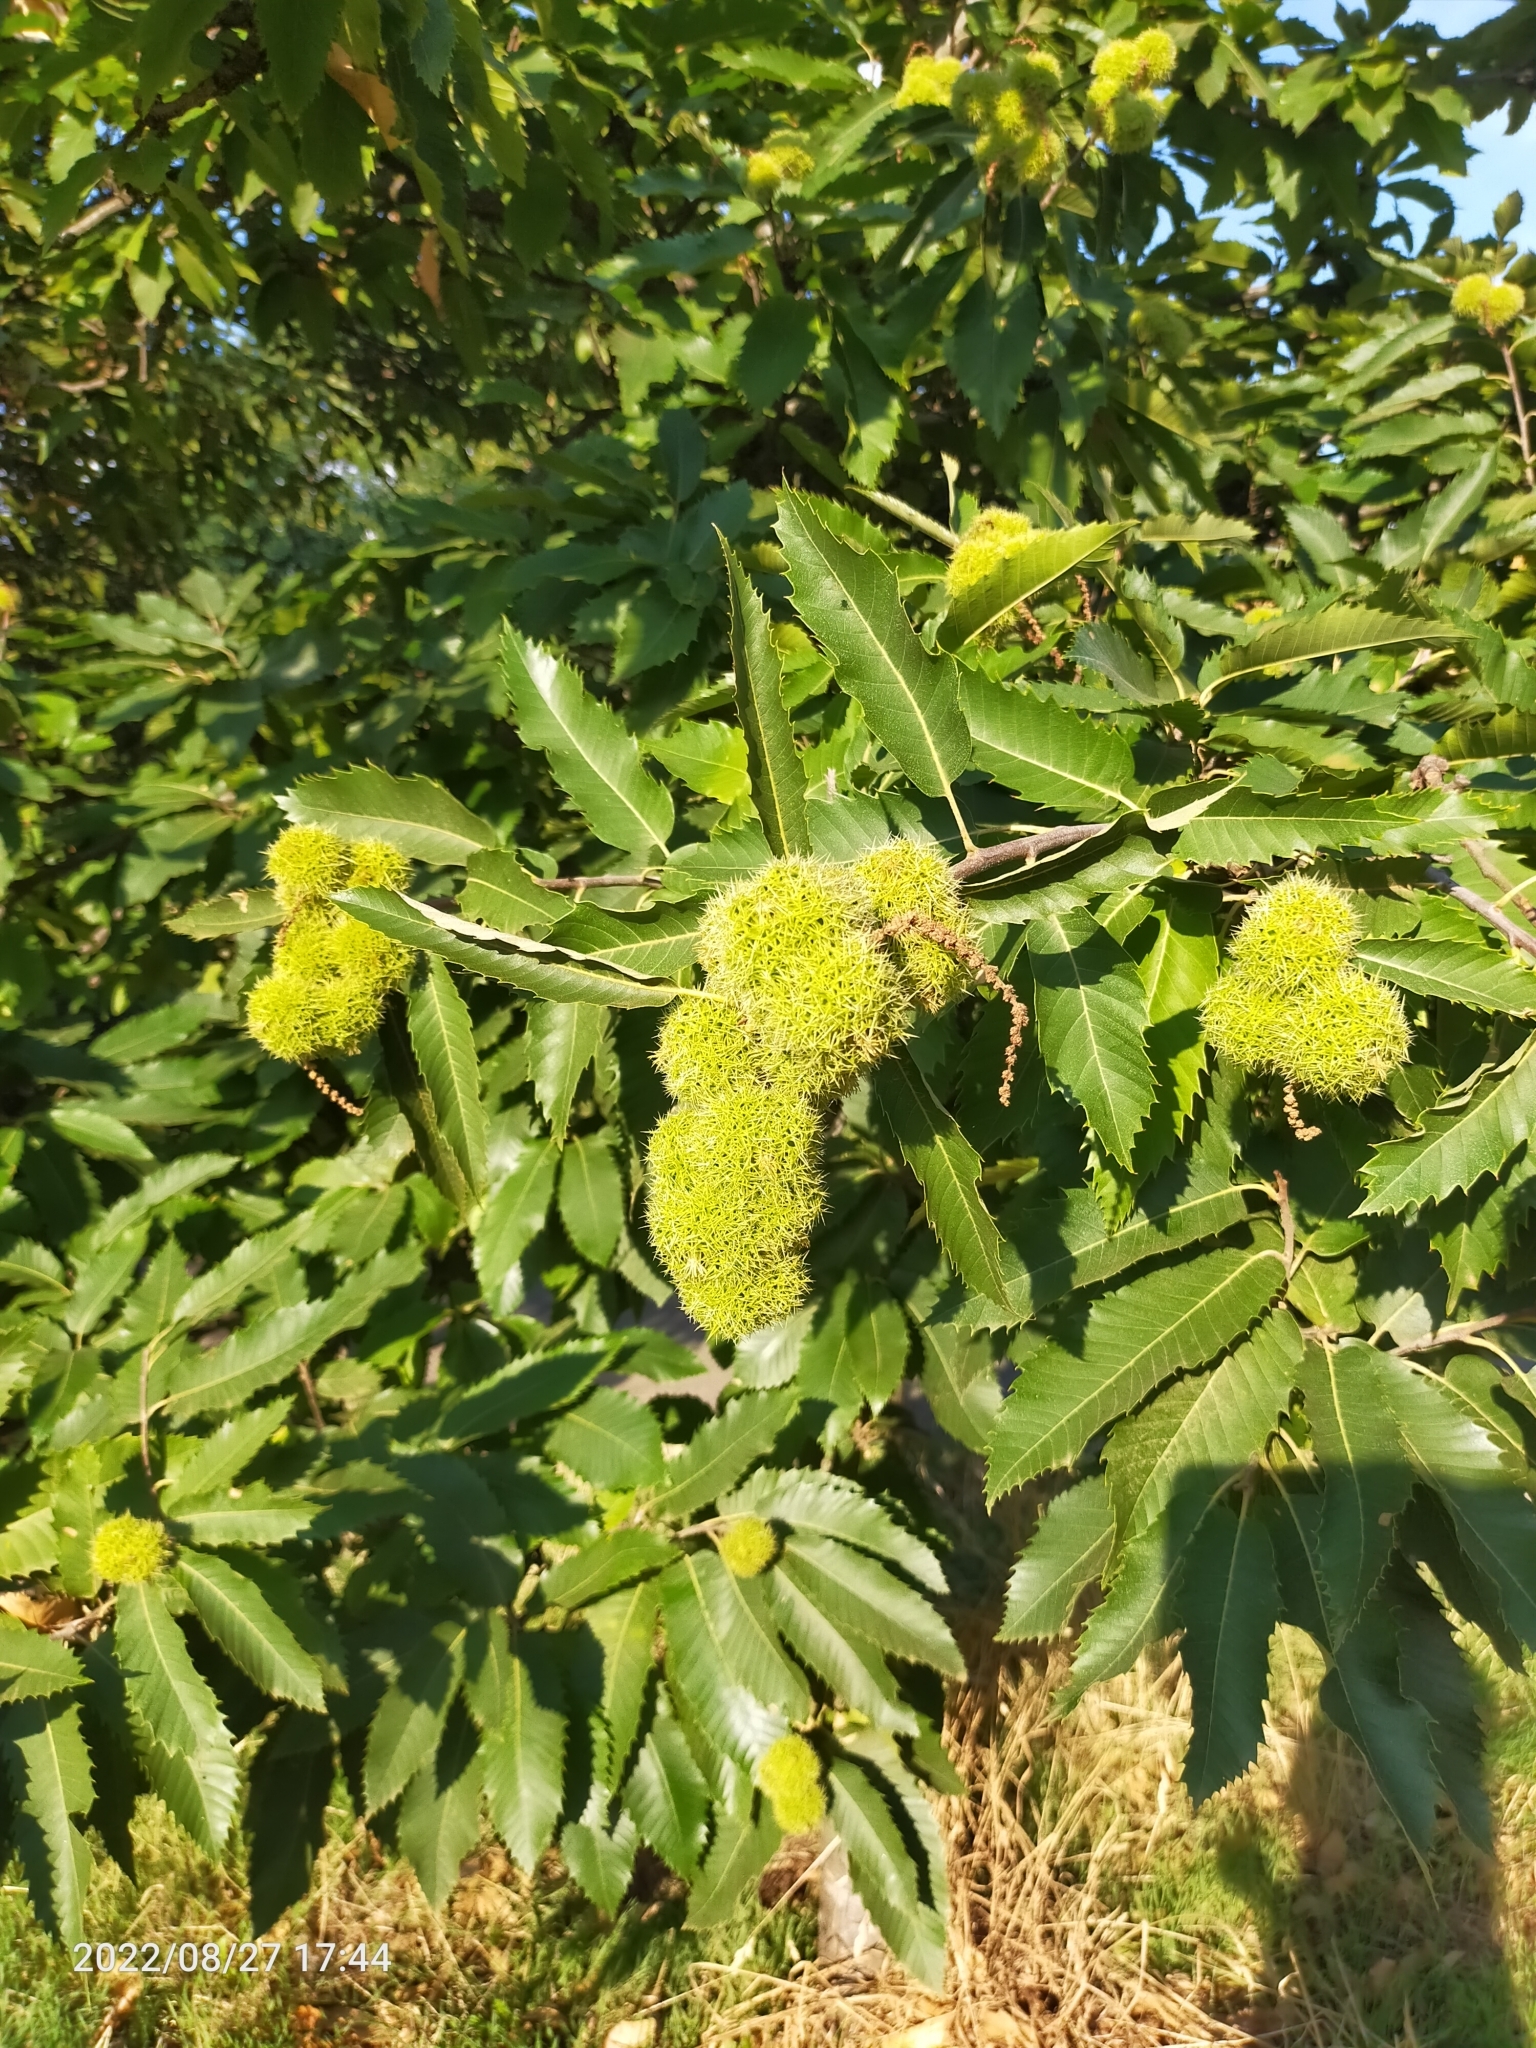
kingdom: Plantae
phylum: Tracheophyta
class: Magnoliopsida
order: Fagales
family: Fagaceae
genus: Castanea
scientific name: Castanea sativa
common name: Sweet chestnut
